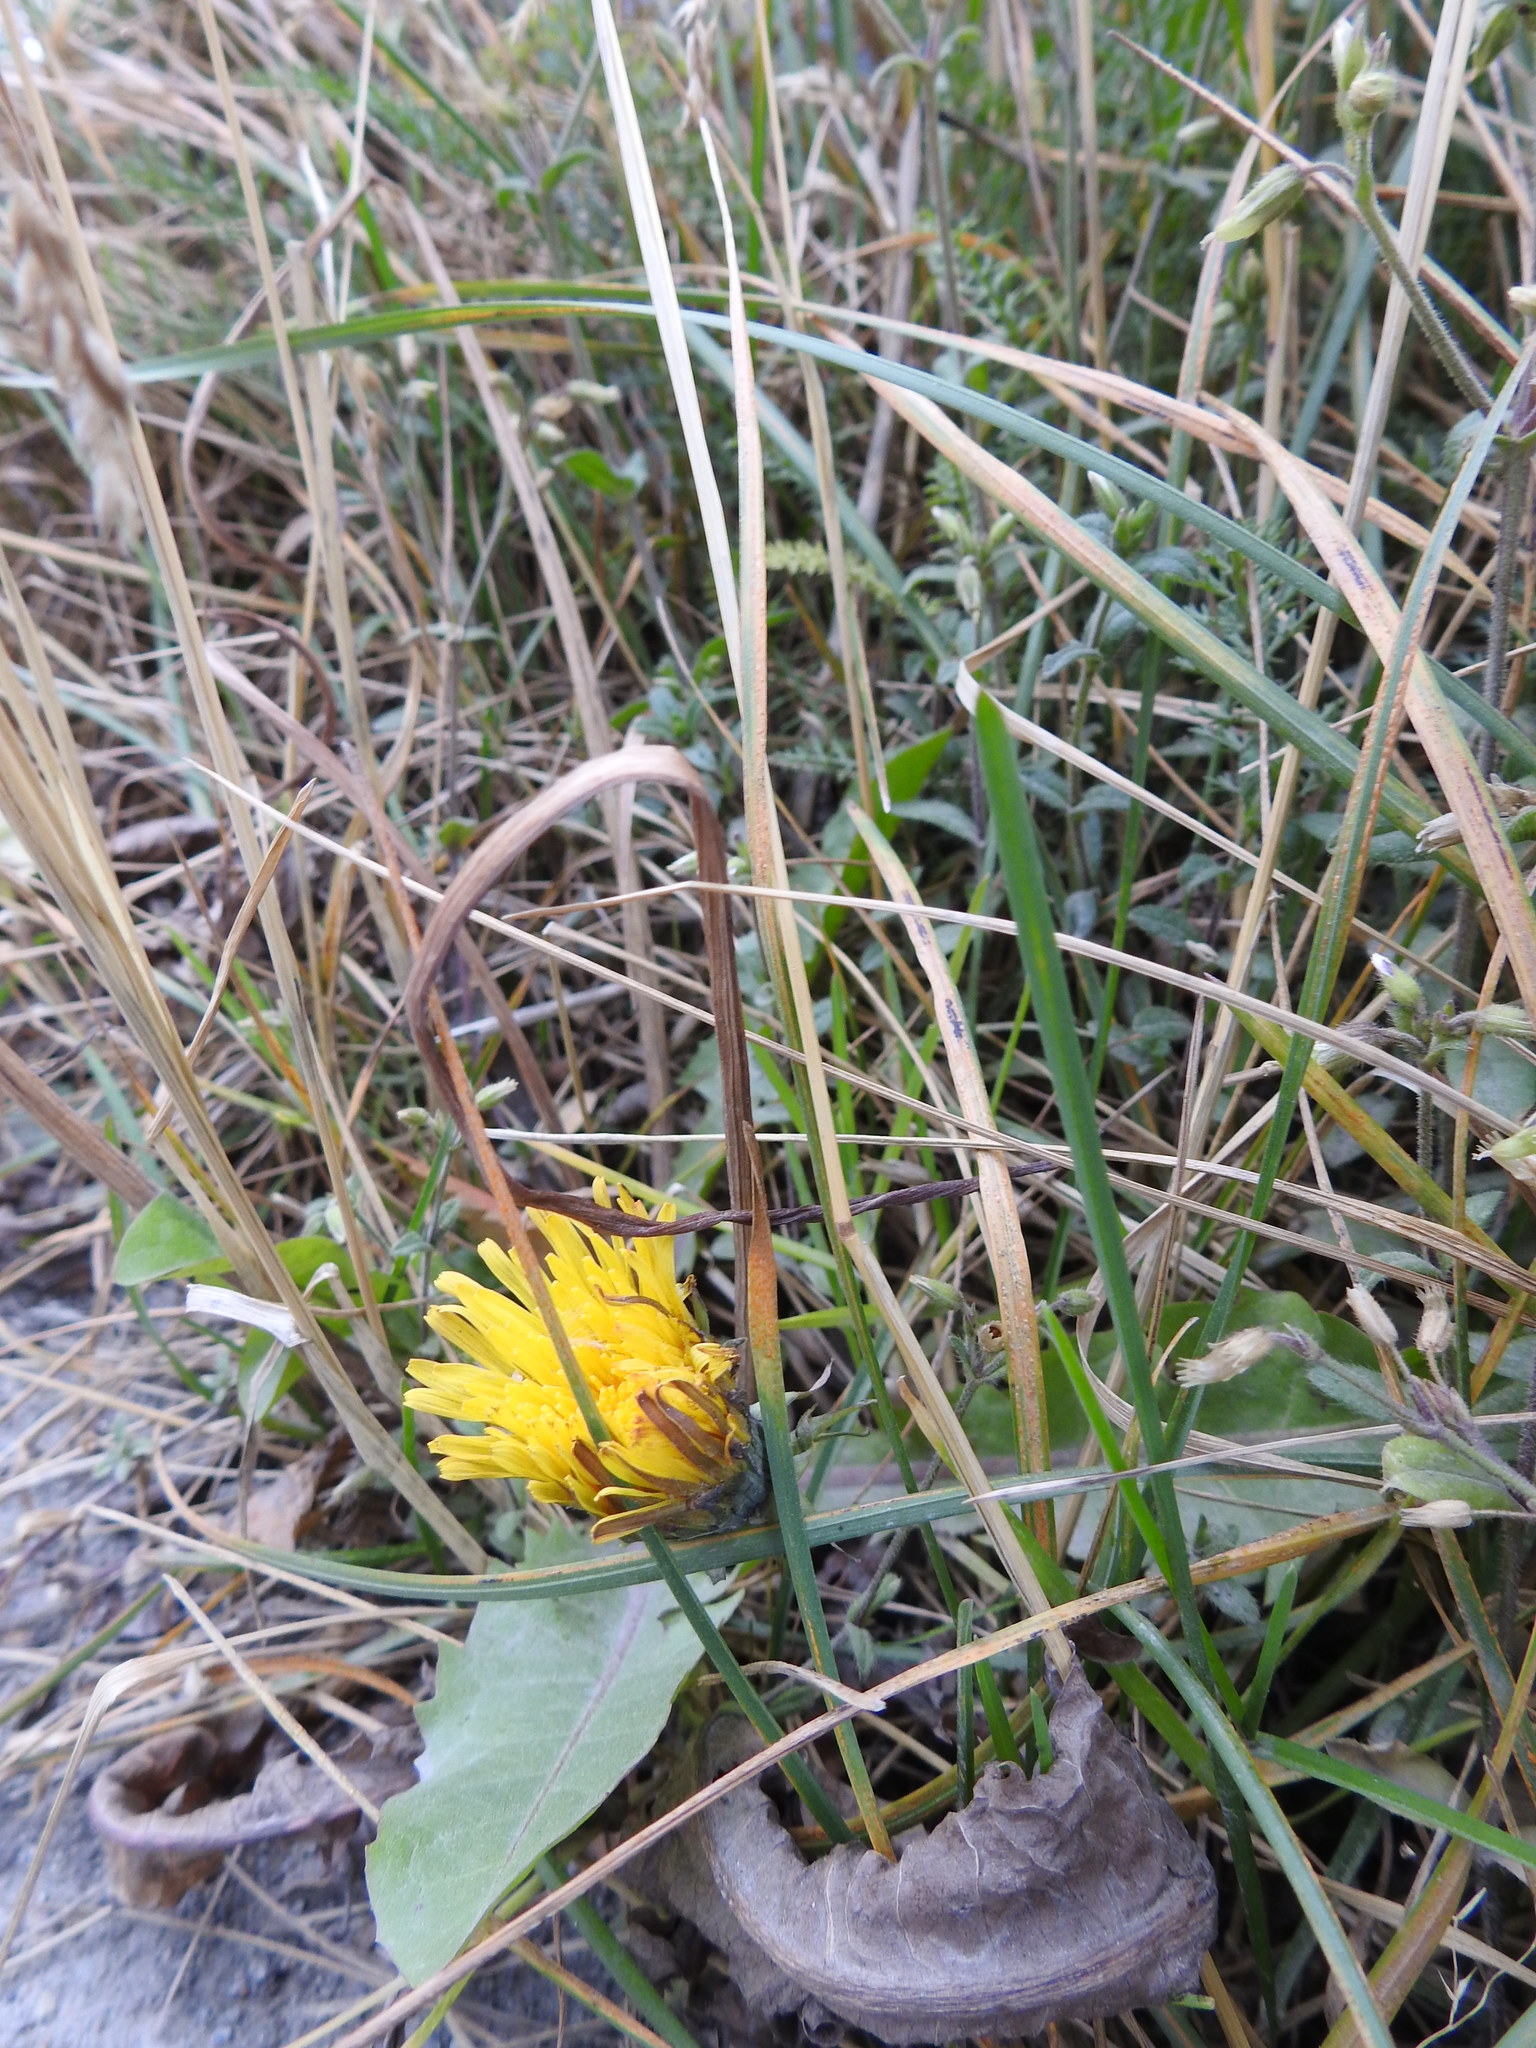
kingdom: Plantae
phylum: Tracheophyta
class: Magnoliopsida
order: Asterales
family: Asteraceae
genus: Taraxacum
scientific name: Taraxacum officinale
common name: Common dandelion
